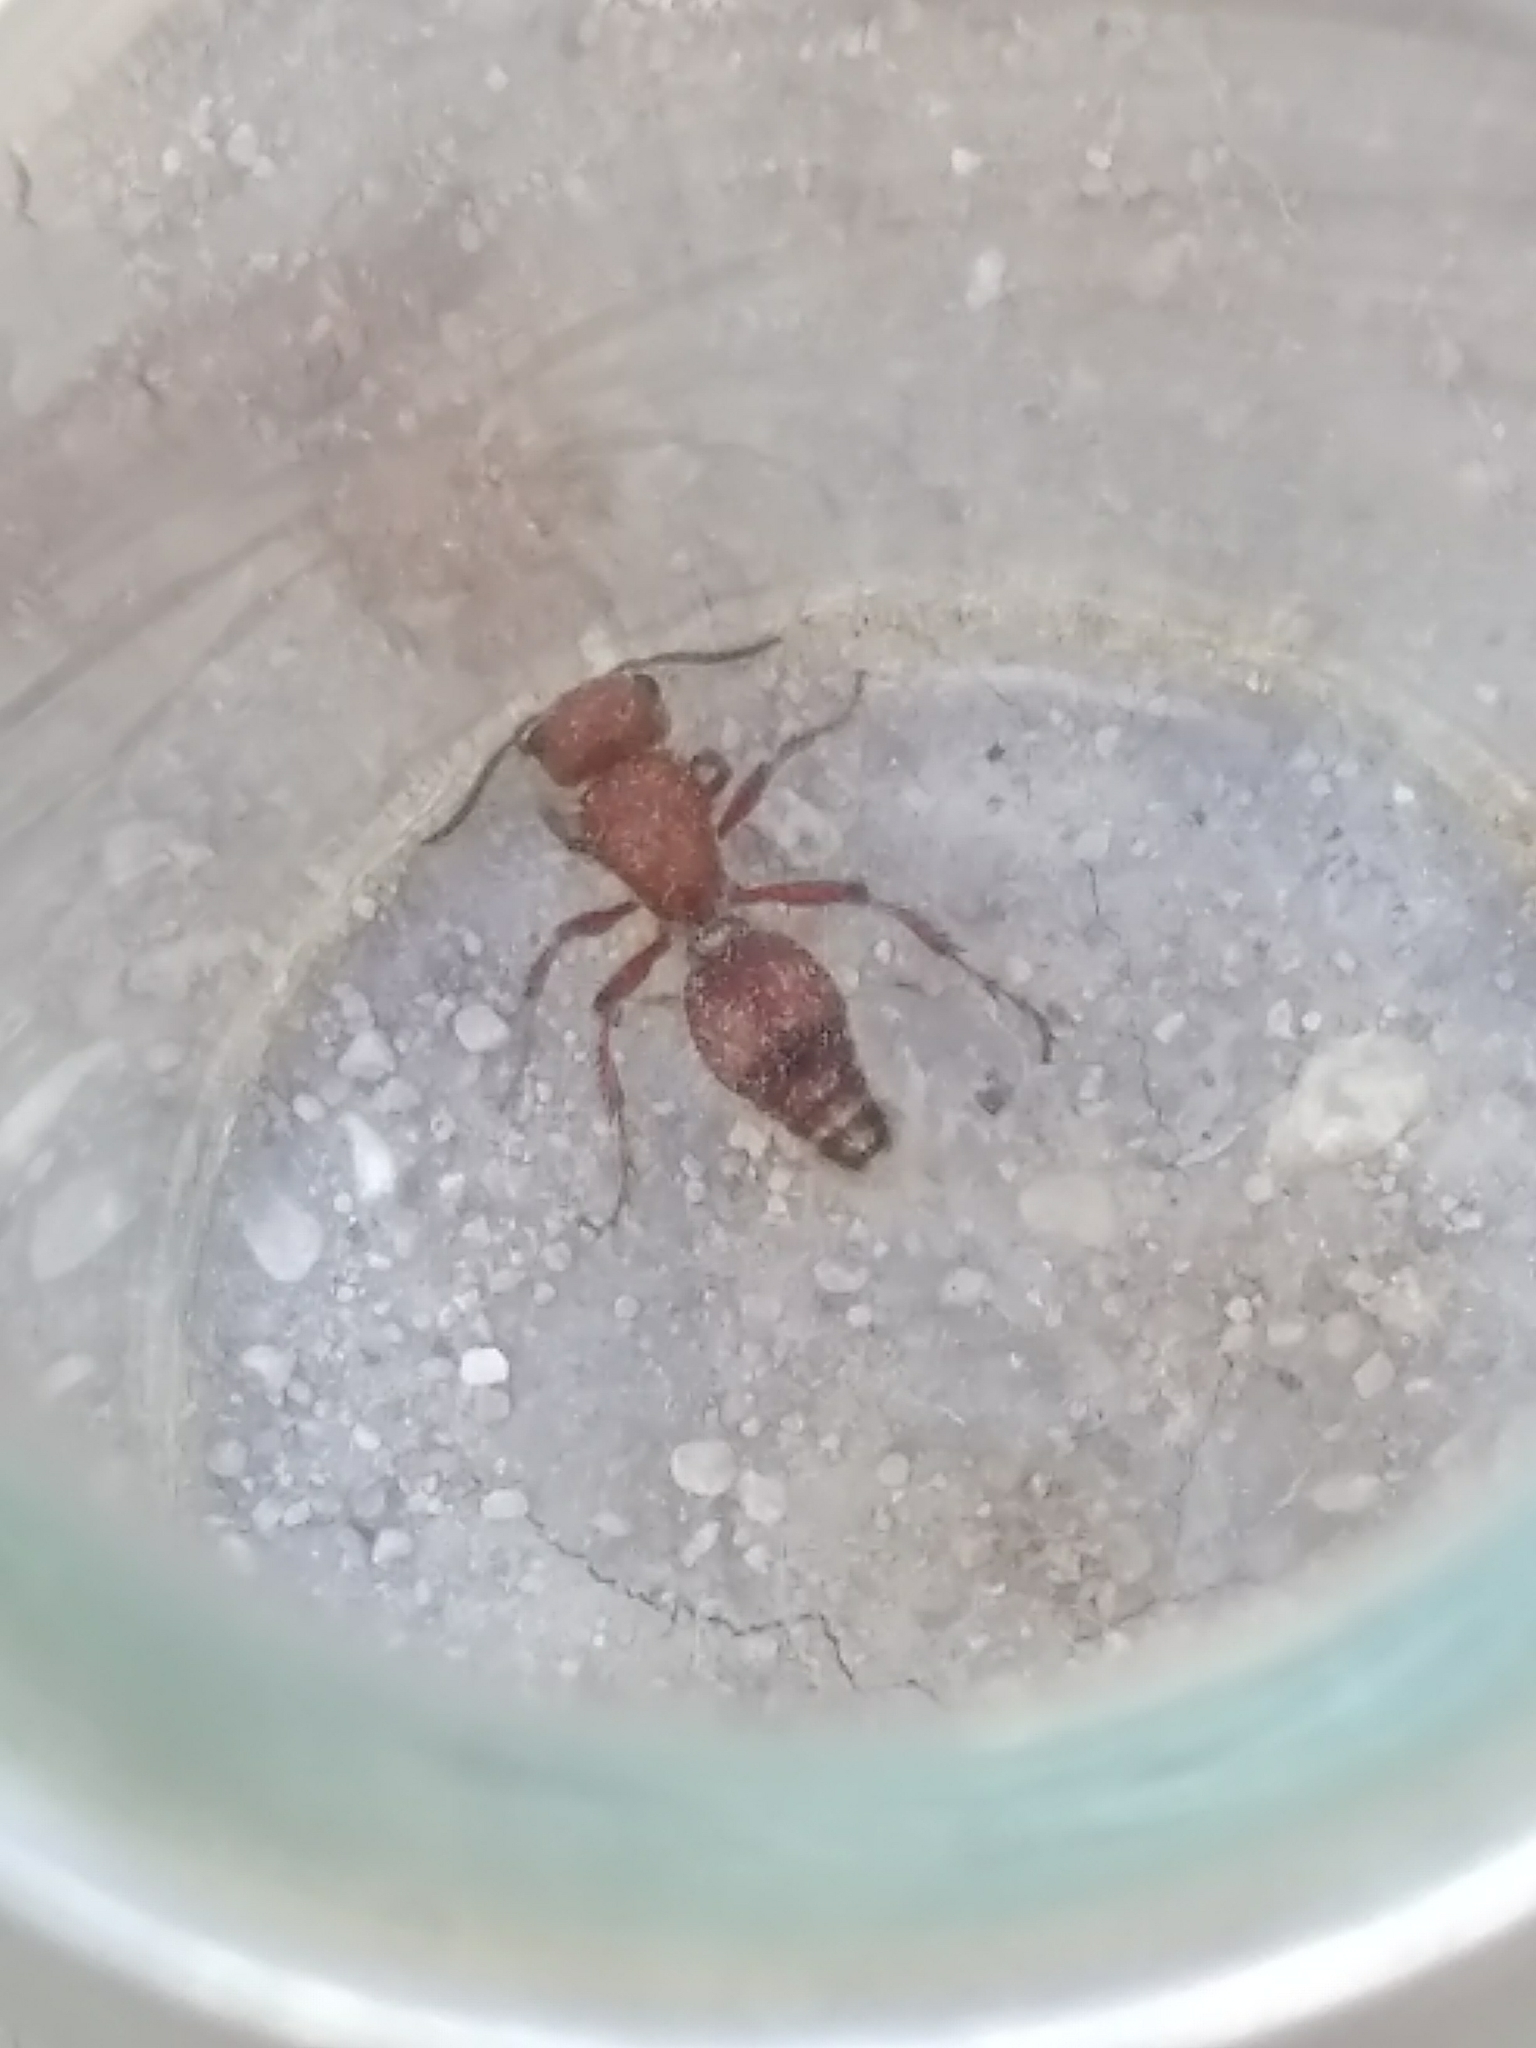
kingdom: Animalia
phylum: Arthropoda
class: Insecta
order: Hymenoptera
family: Mutillidae
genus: Dasymutilla
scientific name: Dasymutilla
